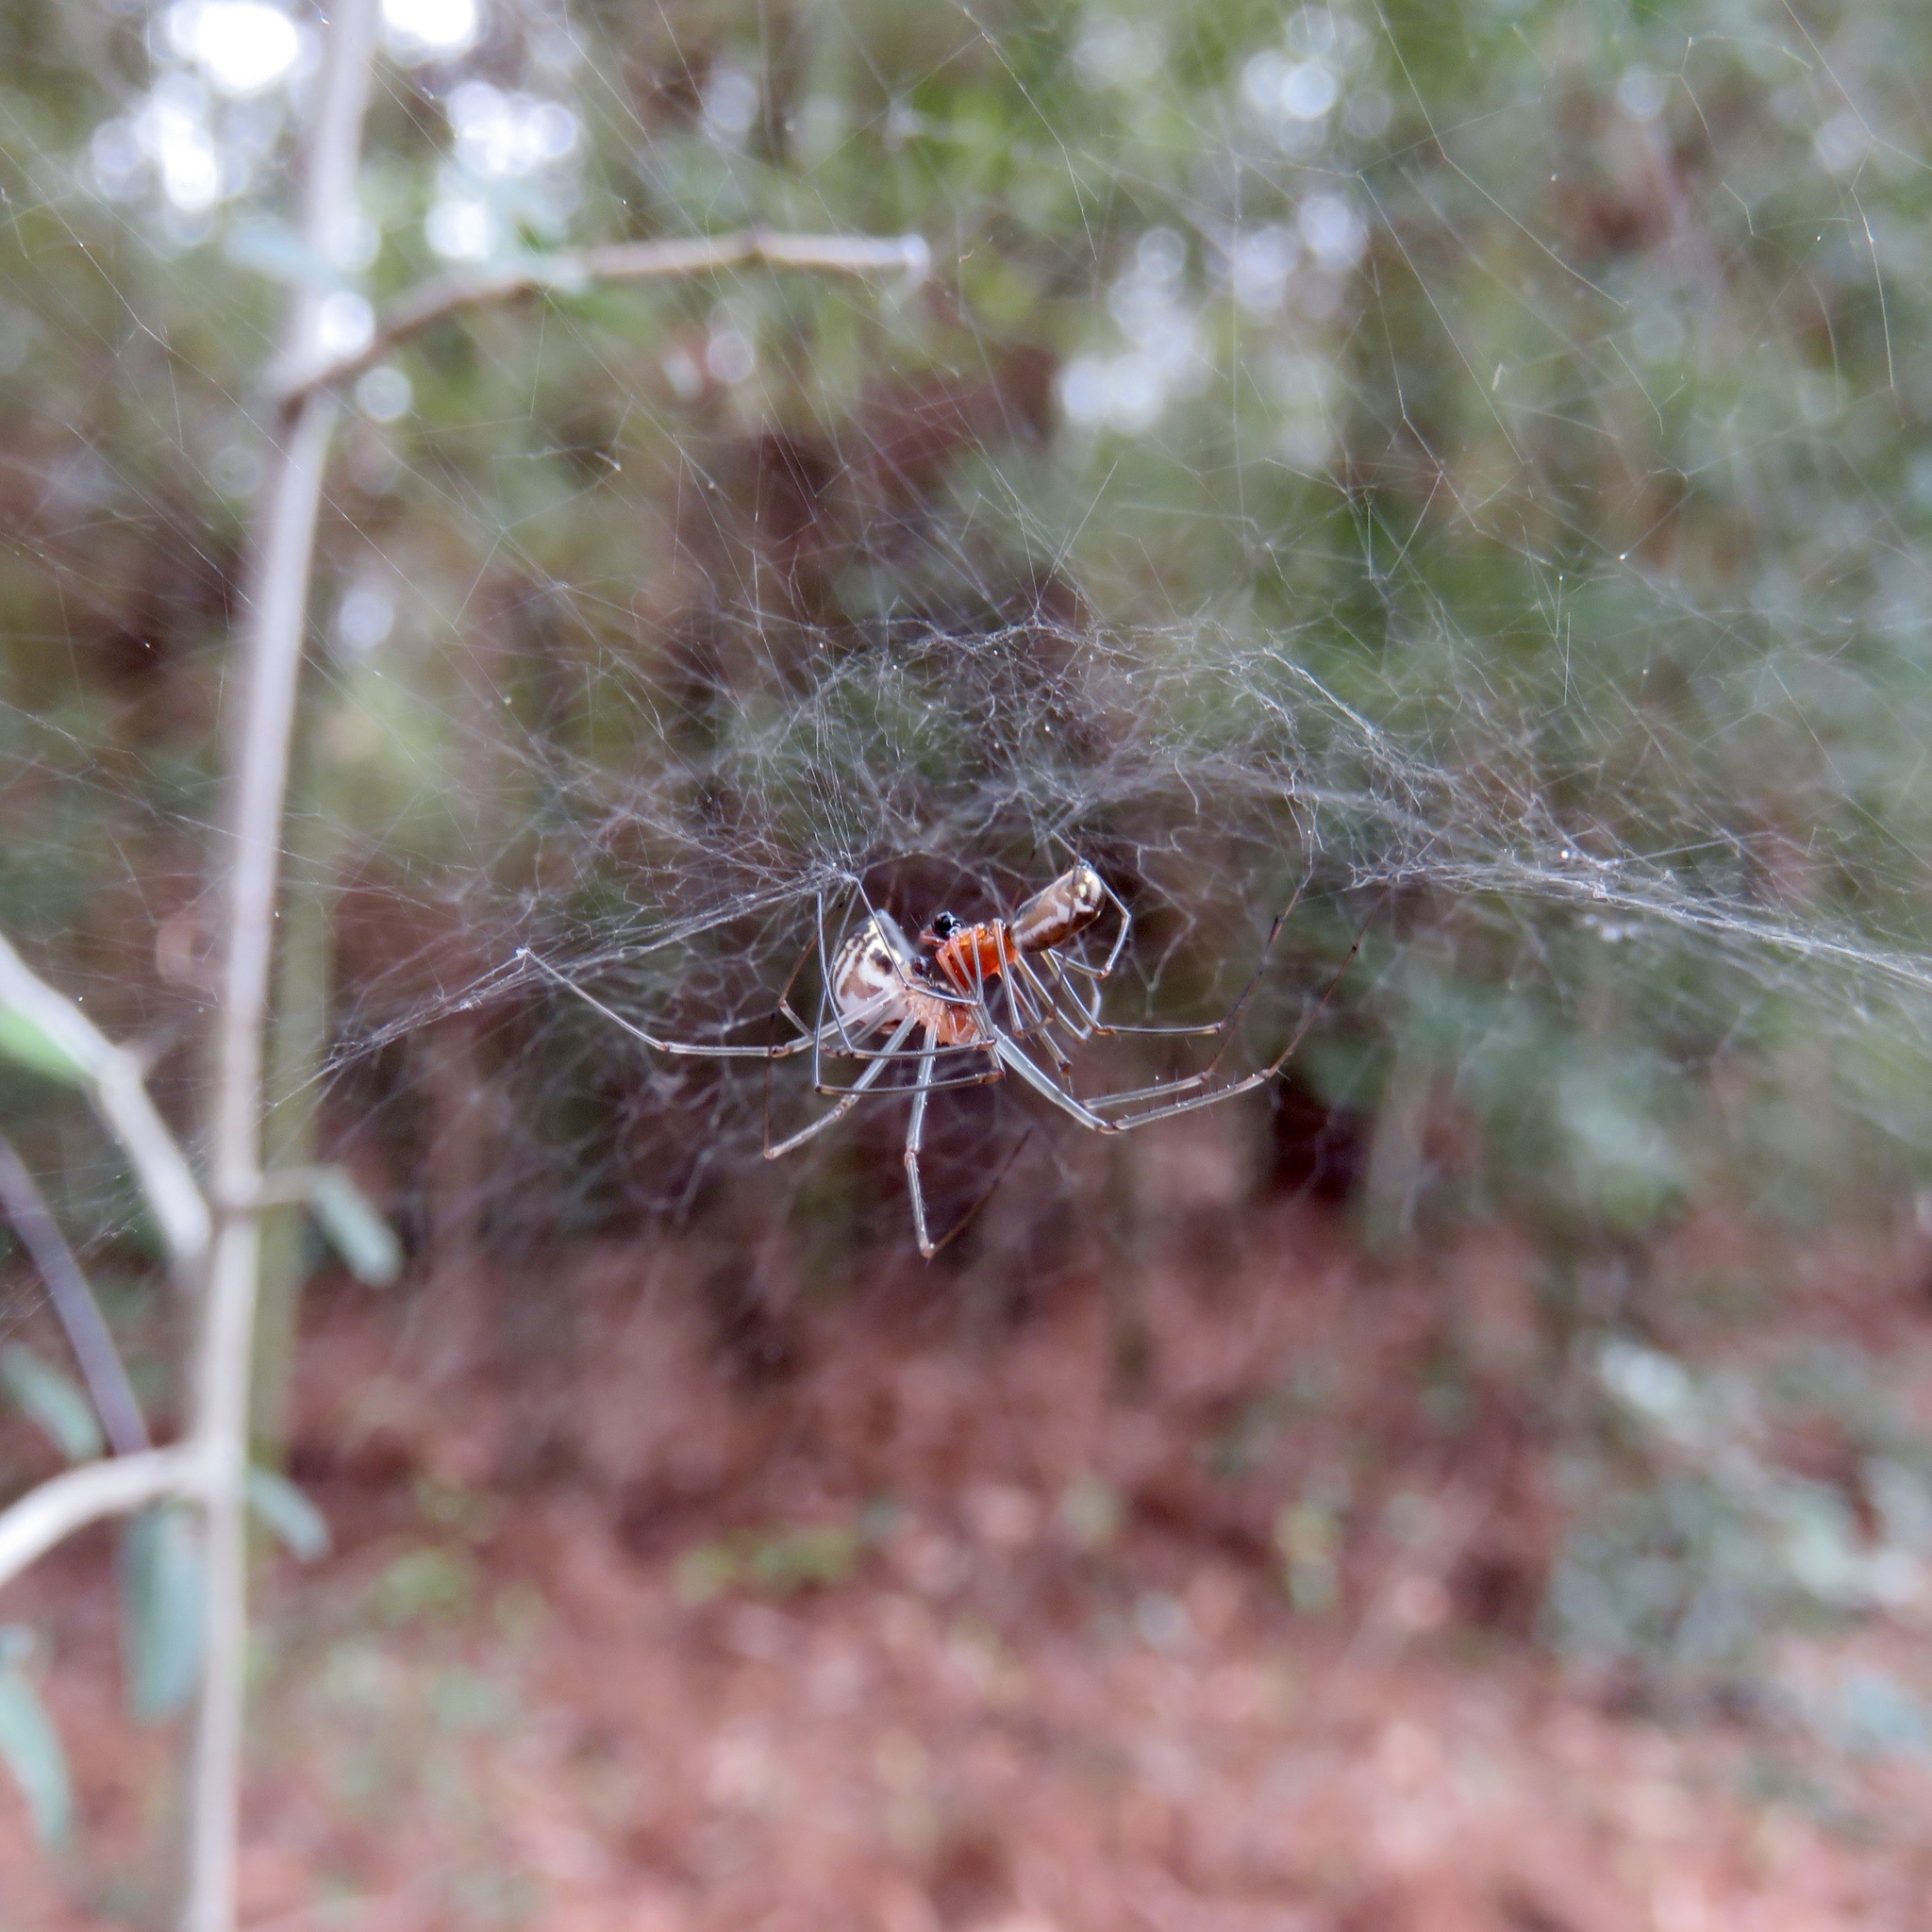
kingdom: Animalia
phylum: Arthropoda
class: Arachnida
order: Araneae
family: Linyphiidae
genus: Neriene
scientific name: Neriene radiata
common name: Filmy dome spider
